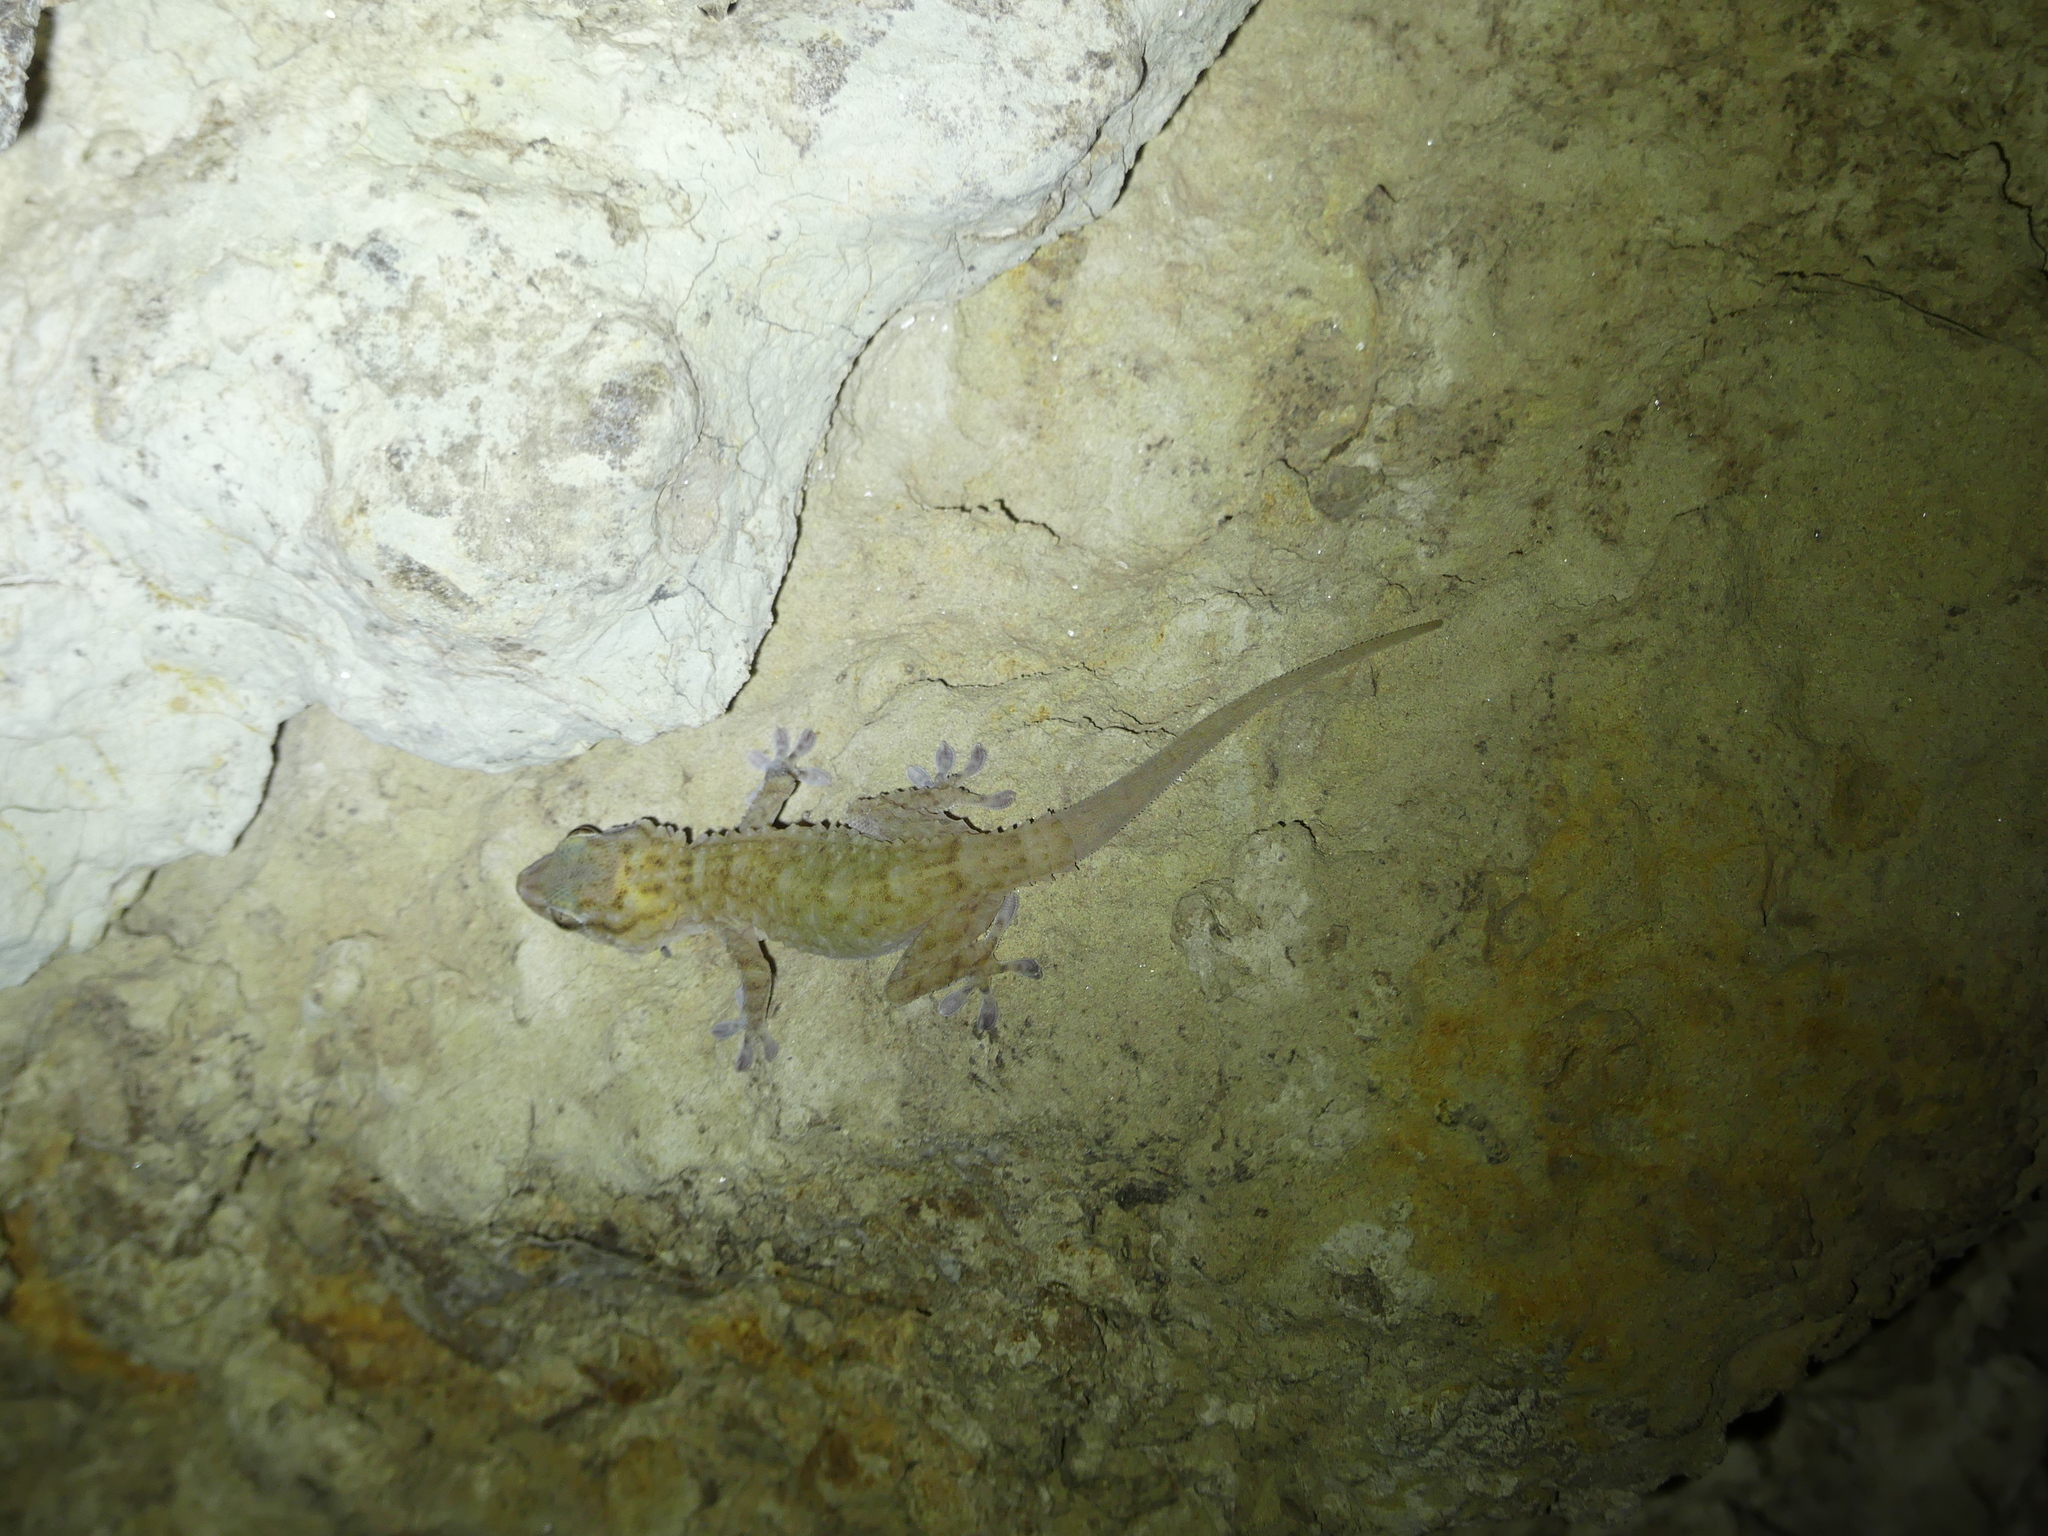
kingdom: Animalia
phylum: Chordata
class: Squamata
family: Phyllodactylidae
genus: Tarentola
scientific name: Tarentola boehmei
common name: Böhme's gecko
